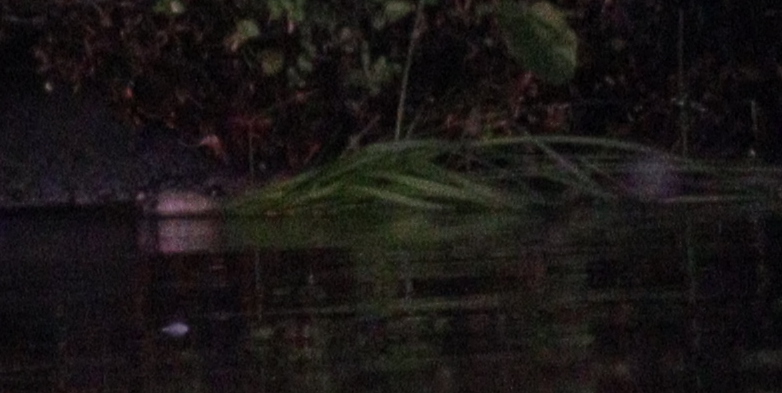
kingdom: Animalia
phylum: Chordata
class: Mammalia
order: Rodentia
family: Cricetidae
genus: Ondatra
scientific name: Ondatra zibethicus
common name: Muskrat
